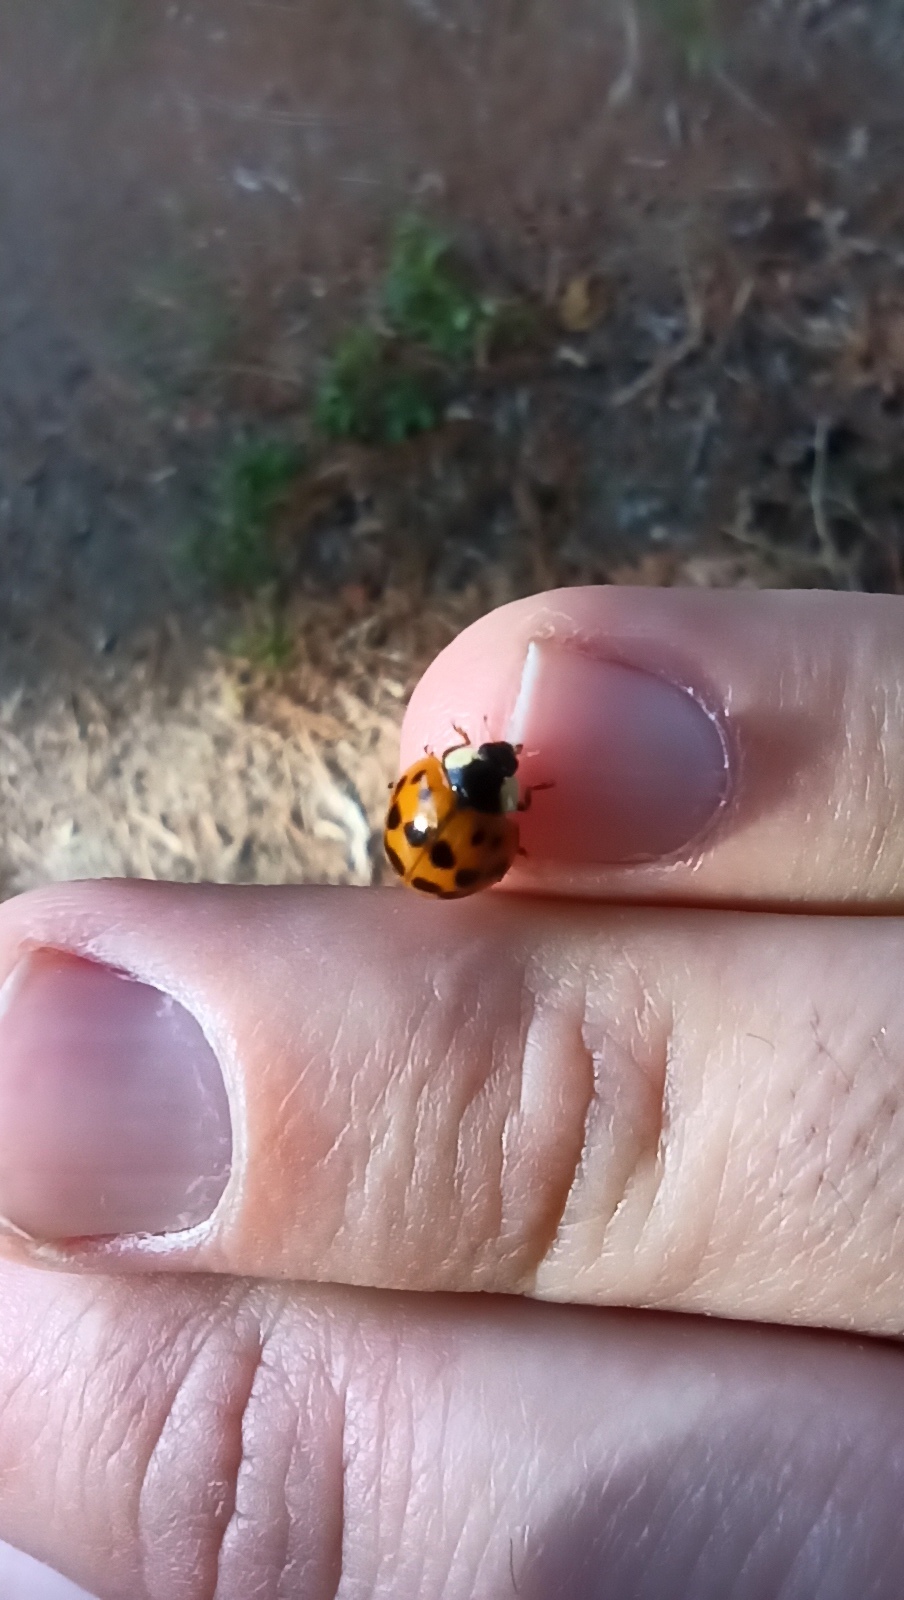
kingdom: Animalia
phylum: Arthropoda
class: Insecta
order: Coleoptera
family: Coccinellidae
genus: Harmonia
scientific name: Harmonia axyridis
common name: Harlequin ladybird
